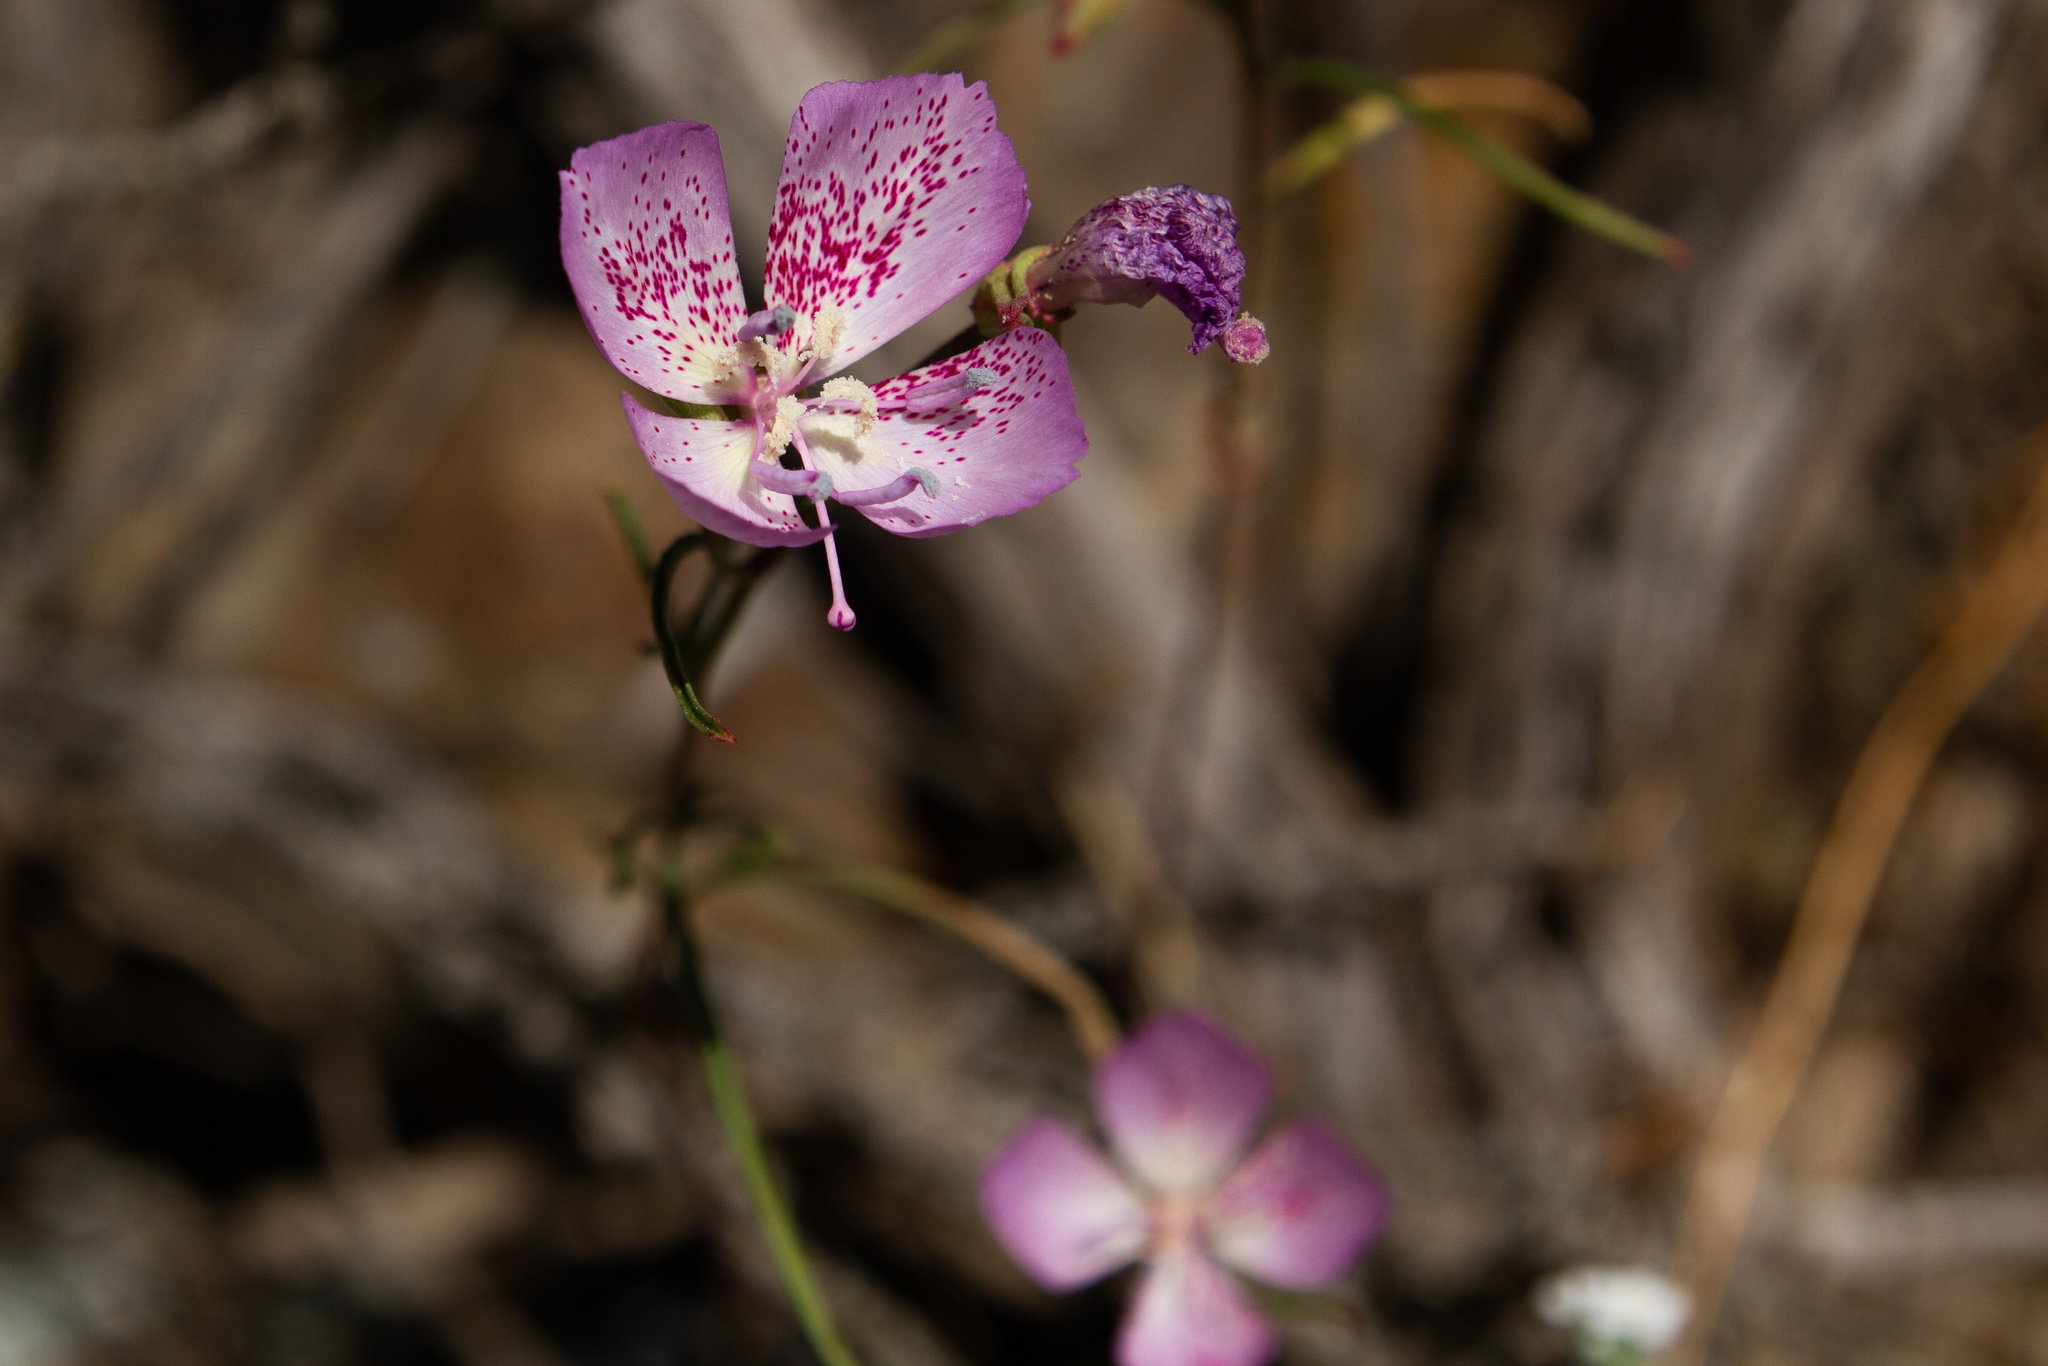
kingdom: Plantae
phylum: Tracheophyta
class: Magnoliopsida
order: Myrtales
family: Onagraceae
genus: Clarkia
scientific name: Clarkia bottae
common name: Punch-bowl godetia
